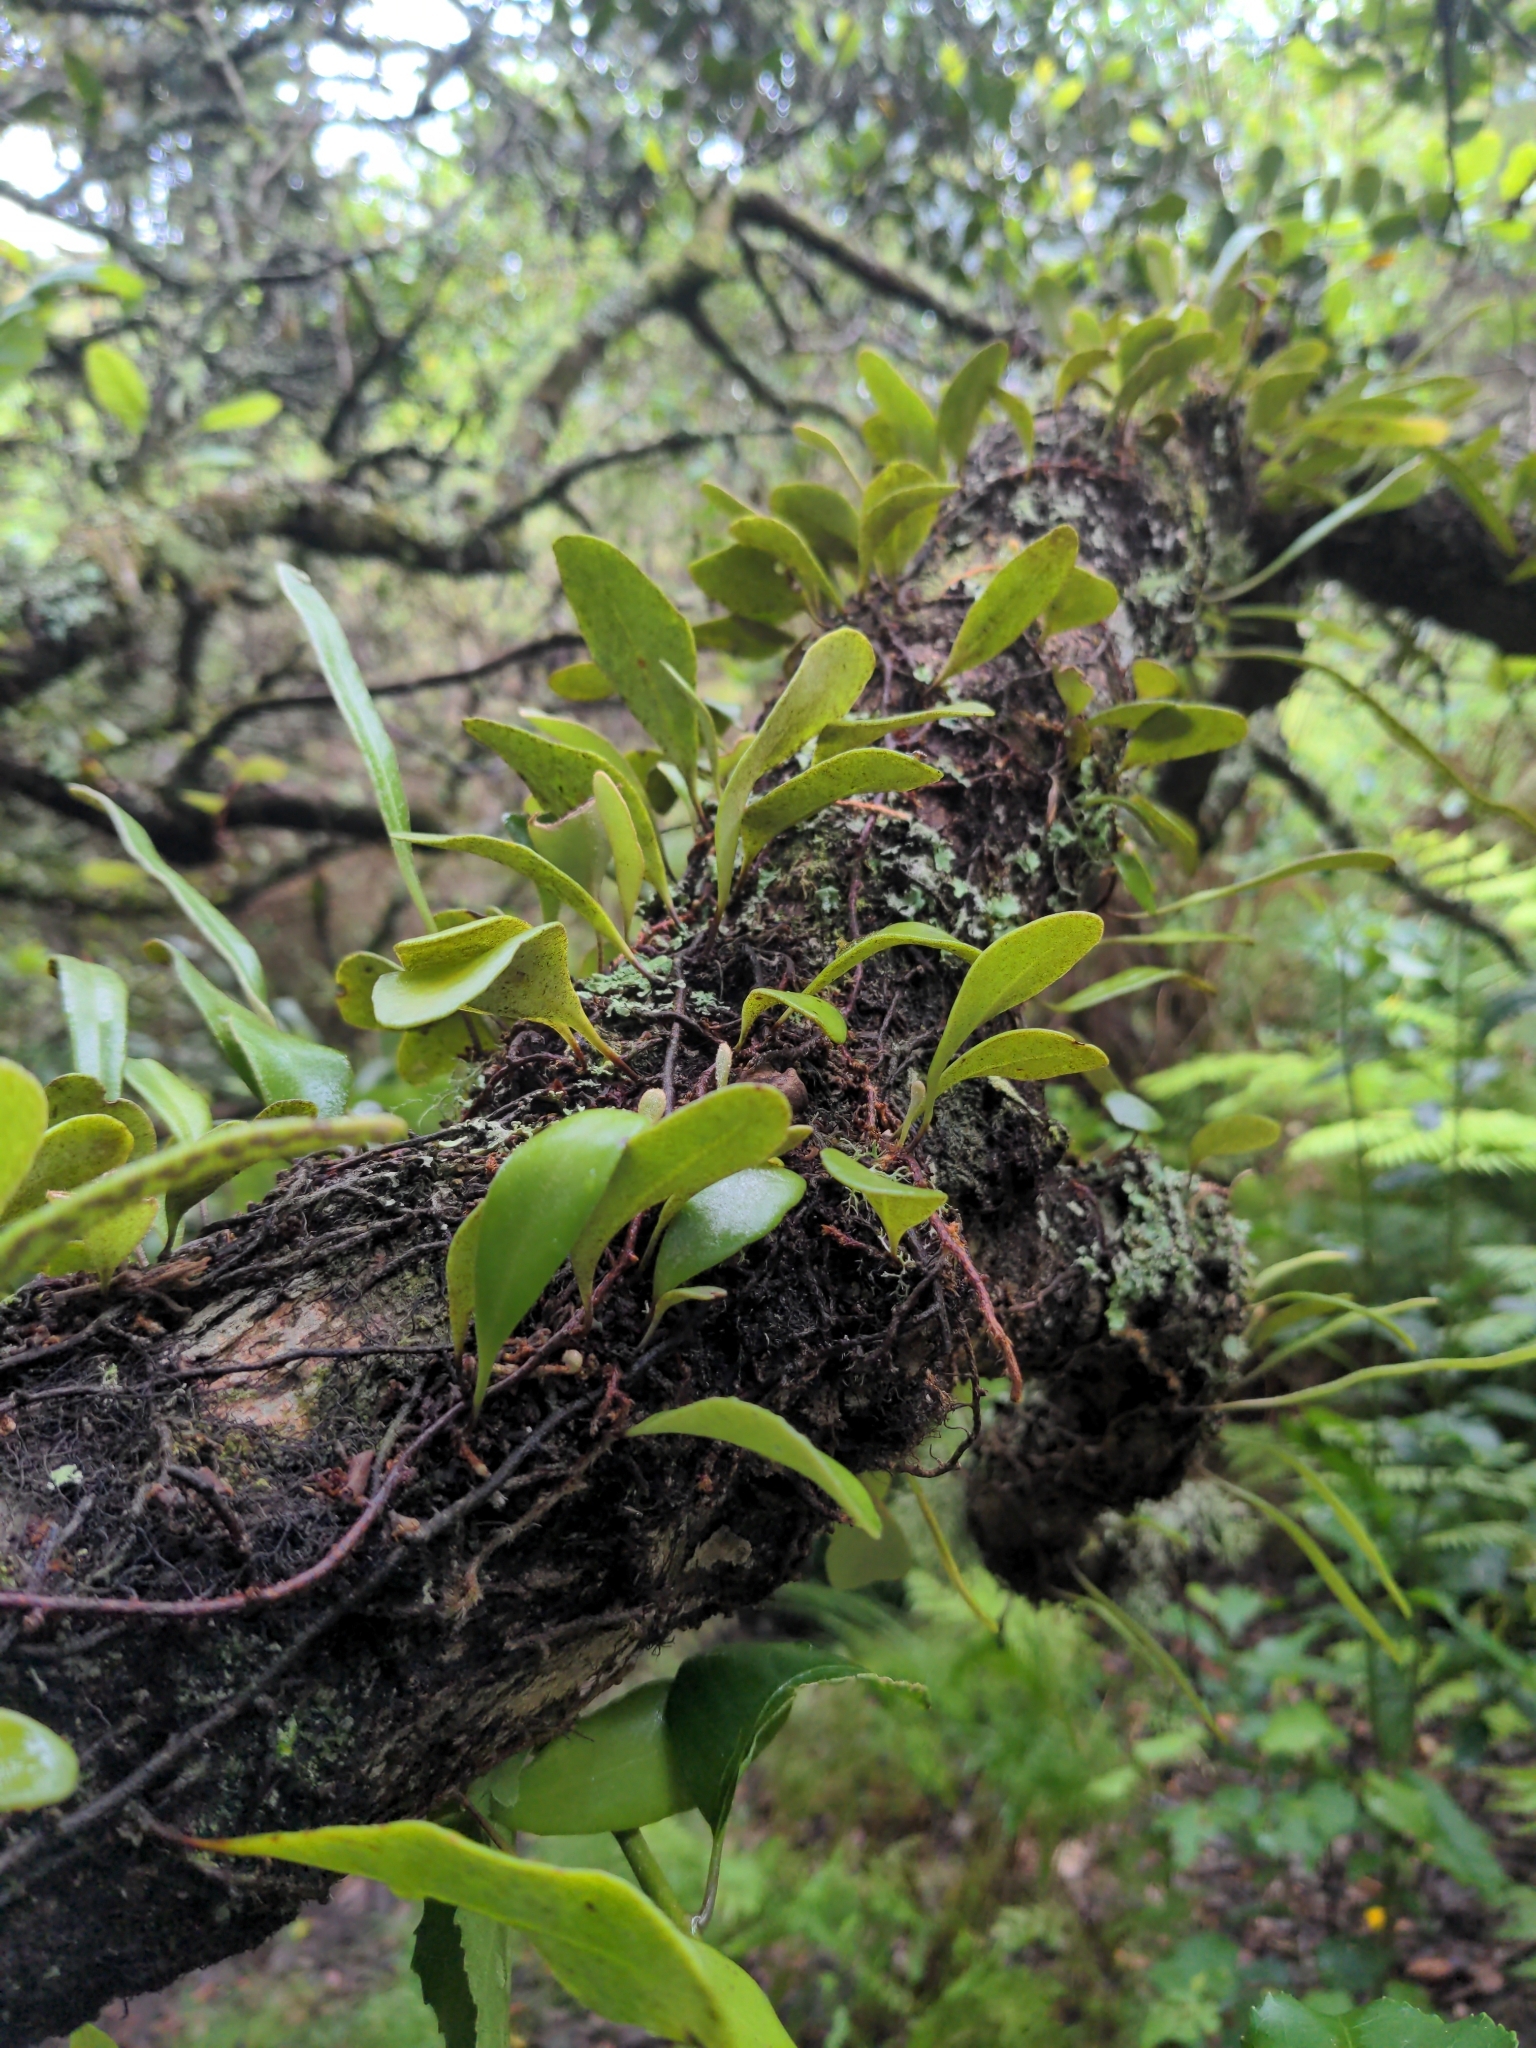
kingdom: Plantae
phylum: Tracheophyta
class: Polypodiopsida
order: Polypodiales
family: Polypodiaceae
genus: Pyrrosia
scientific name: Pyrrosia eleagnifolia
